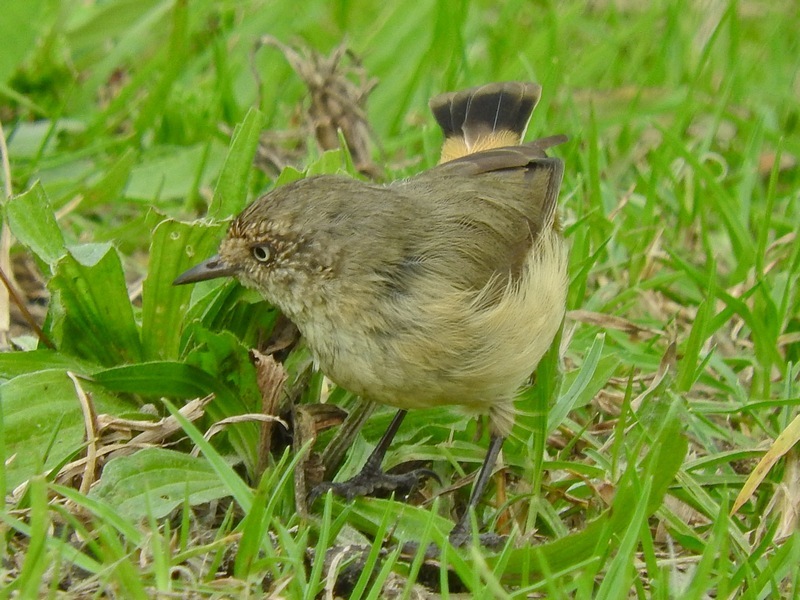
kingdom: Animalia
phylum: Chordata
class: Aves
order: Passeriformes
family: Acanthizidae
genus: Acanthiza
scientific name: Acanthiza reguloides
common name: Buff-rumped thornbill
